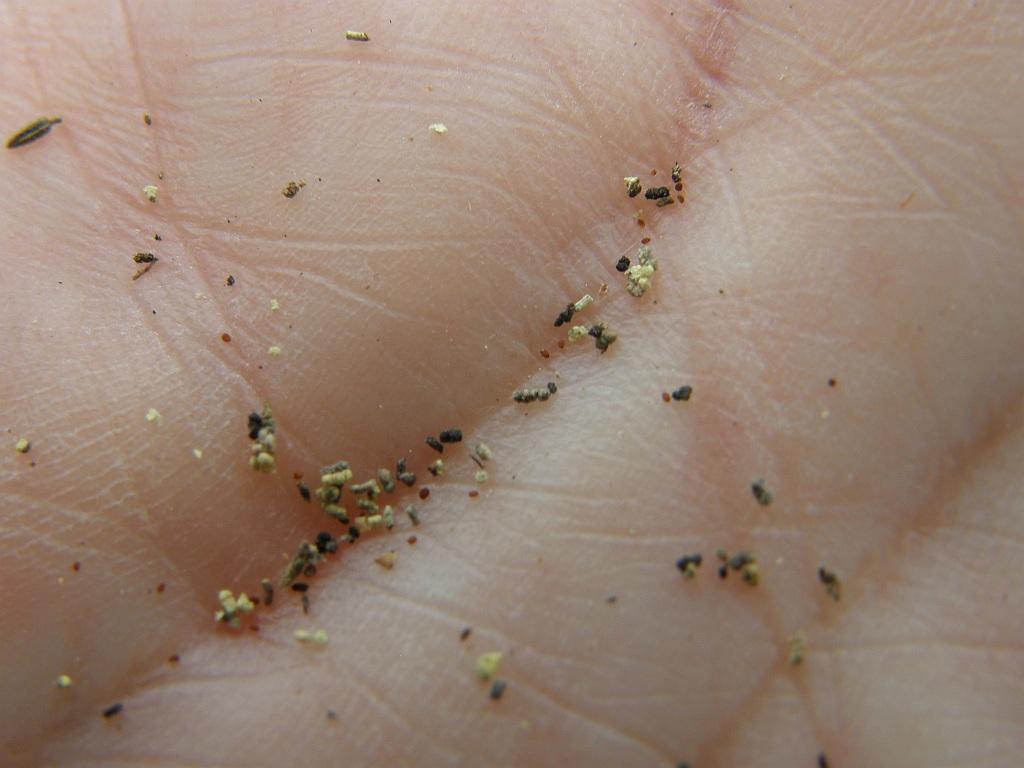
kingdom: Plantae
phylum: Tracheophyta
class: Liliopsida
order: Asparagales
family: Iridaceae
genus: Klattia
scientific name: Klattia partita
